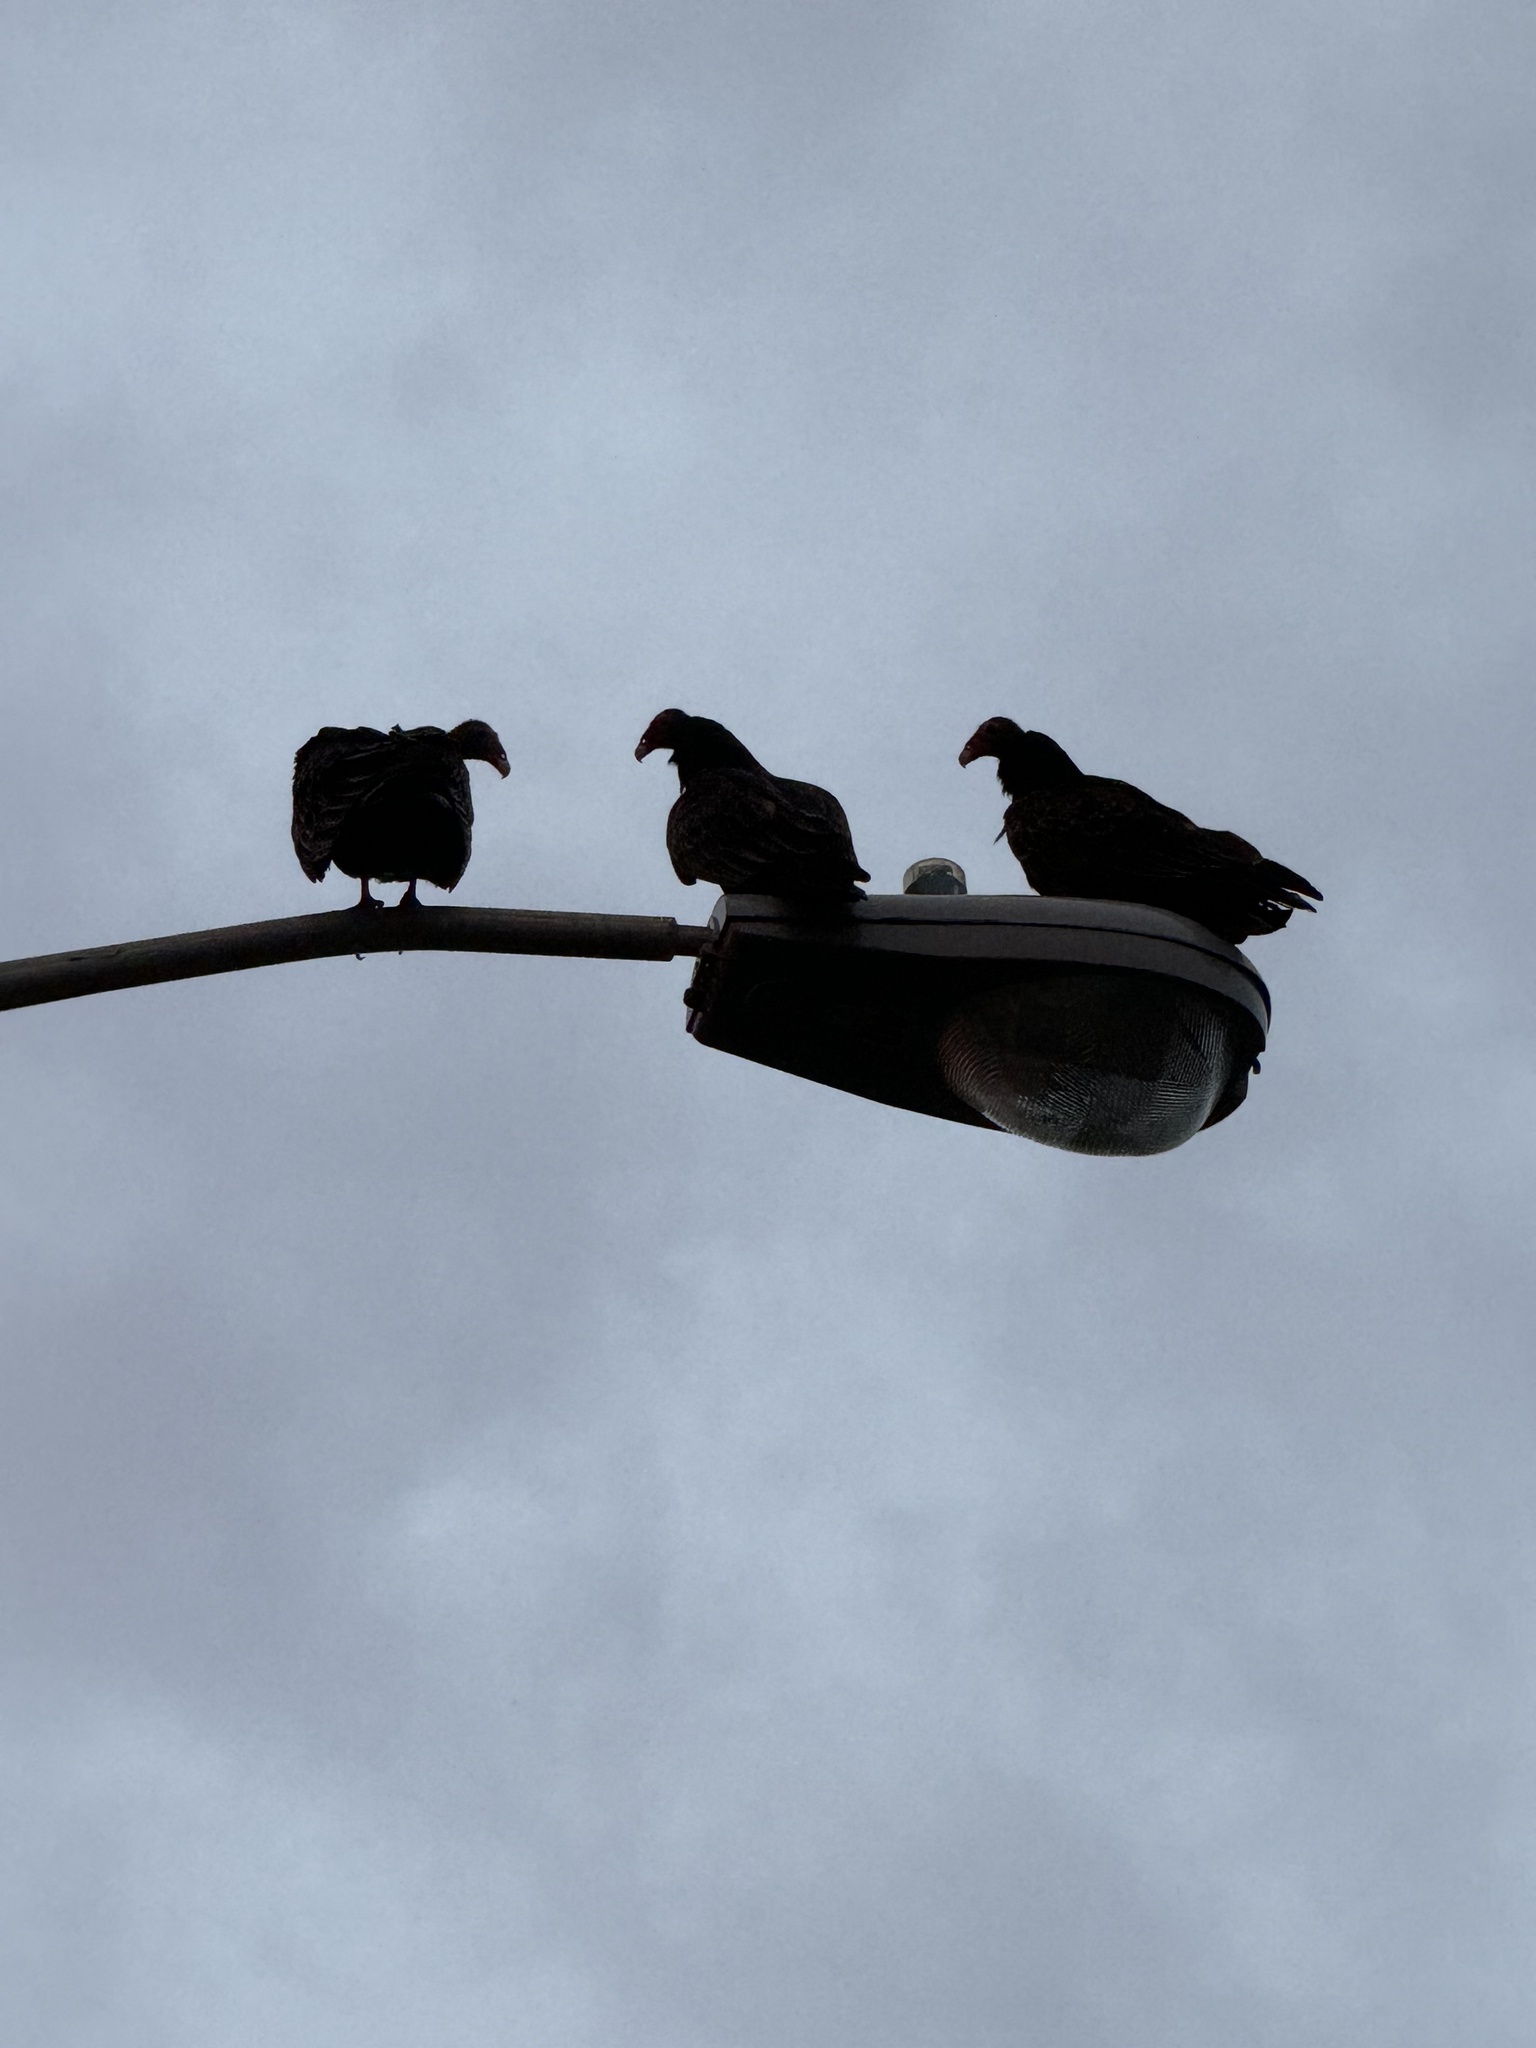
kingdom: Animalia
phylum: Chordata
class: Aves
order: Accipitriformes
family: Cathartidae
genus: Cathartes
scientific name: Cathartes aura
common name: Turkey vulture
